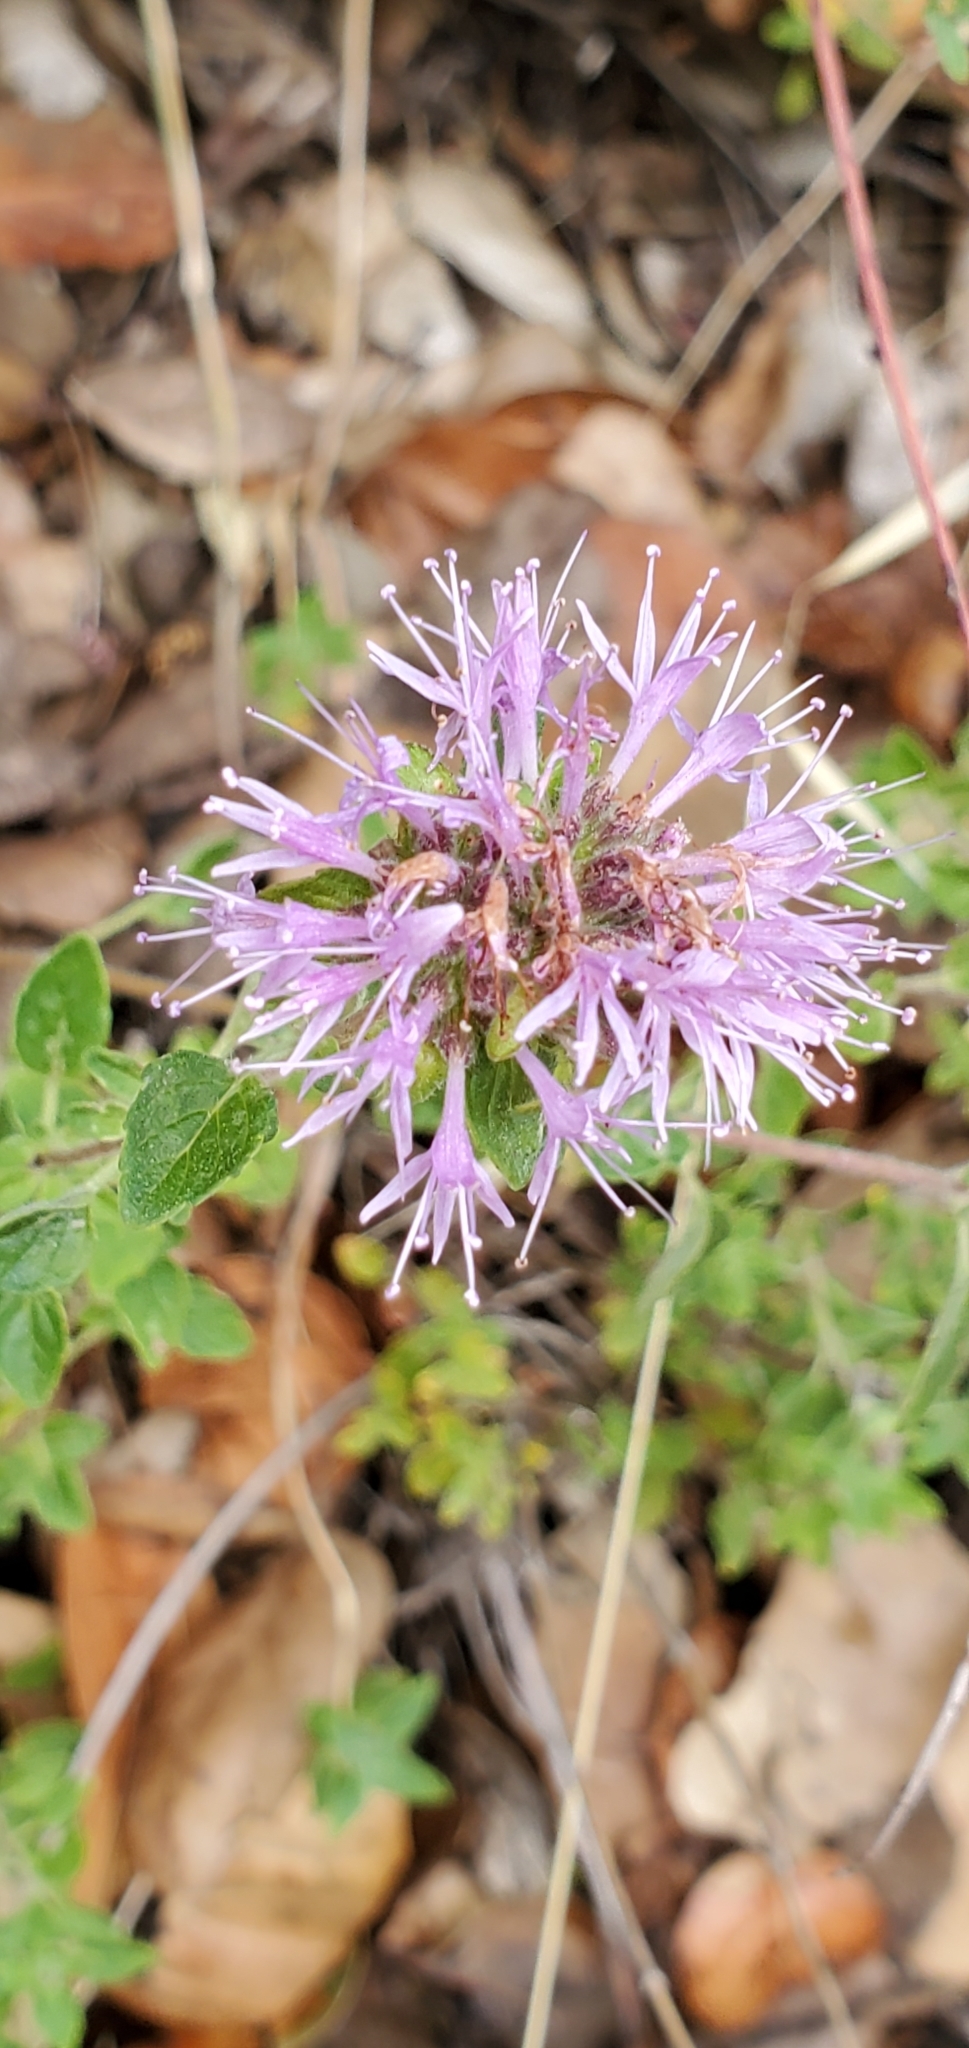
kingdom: Plantae
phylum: Tracheophyta
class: Magnoliopsida
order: Lamiales
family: Lamiaceae
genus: Monardella
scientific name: Monardella odoratissima
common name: Pacific monardella
